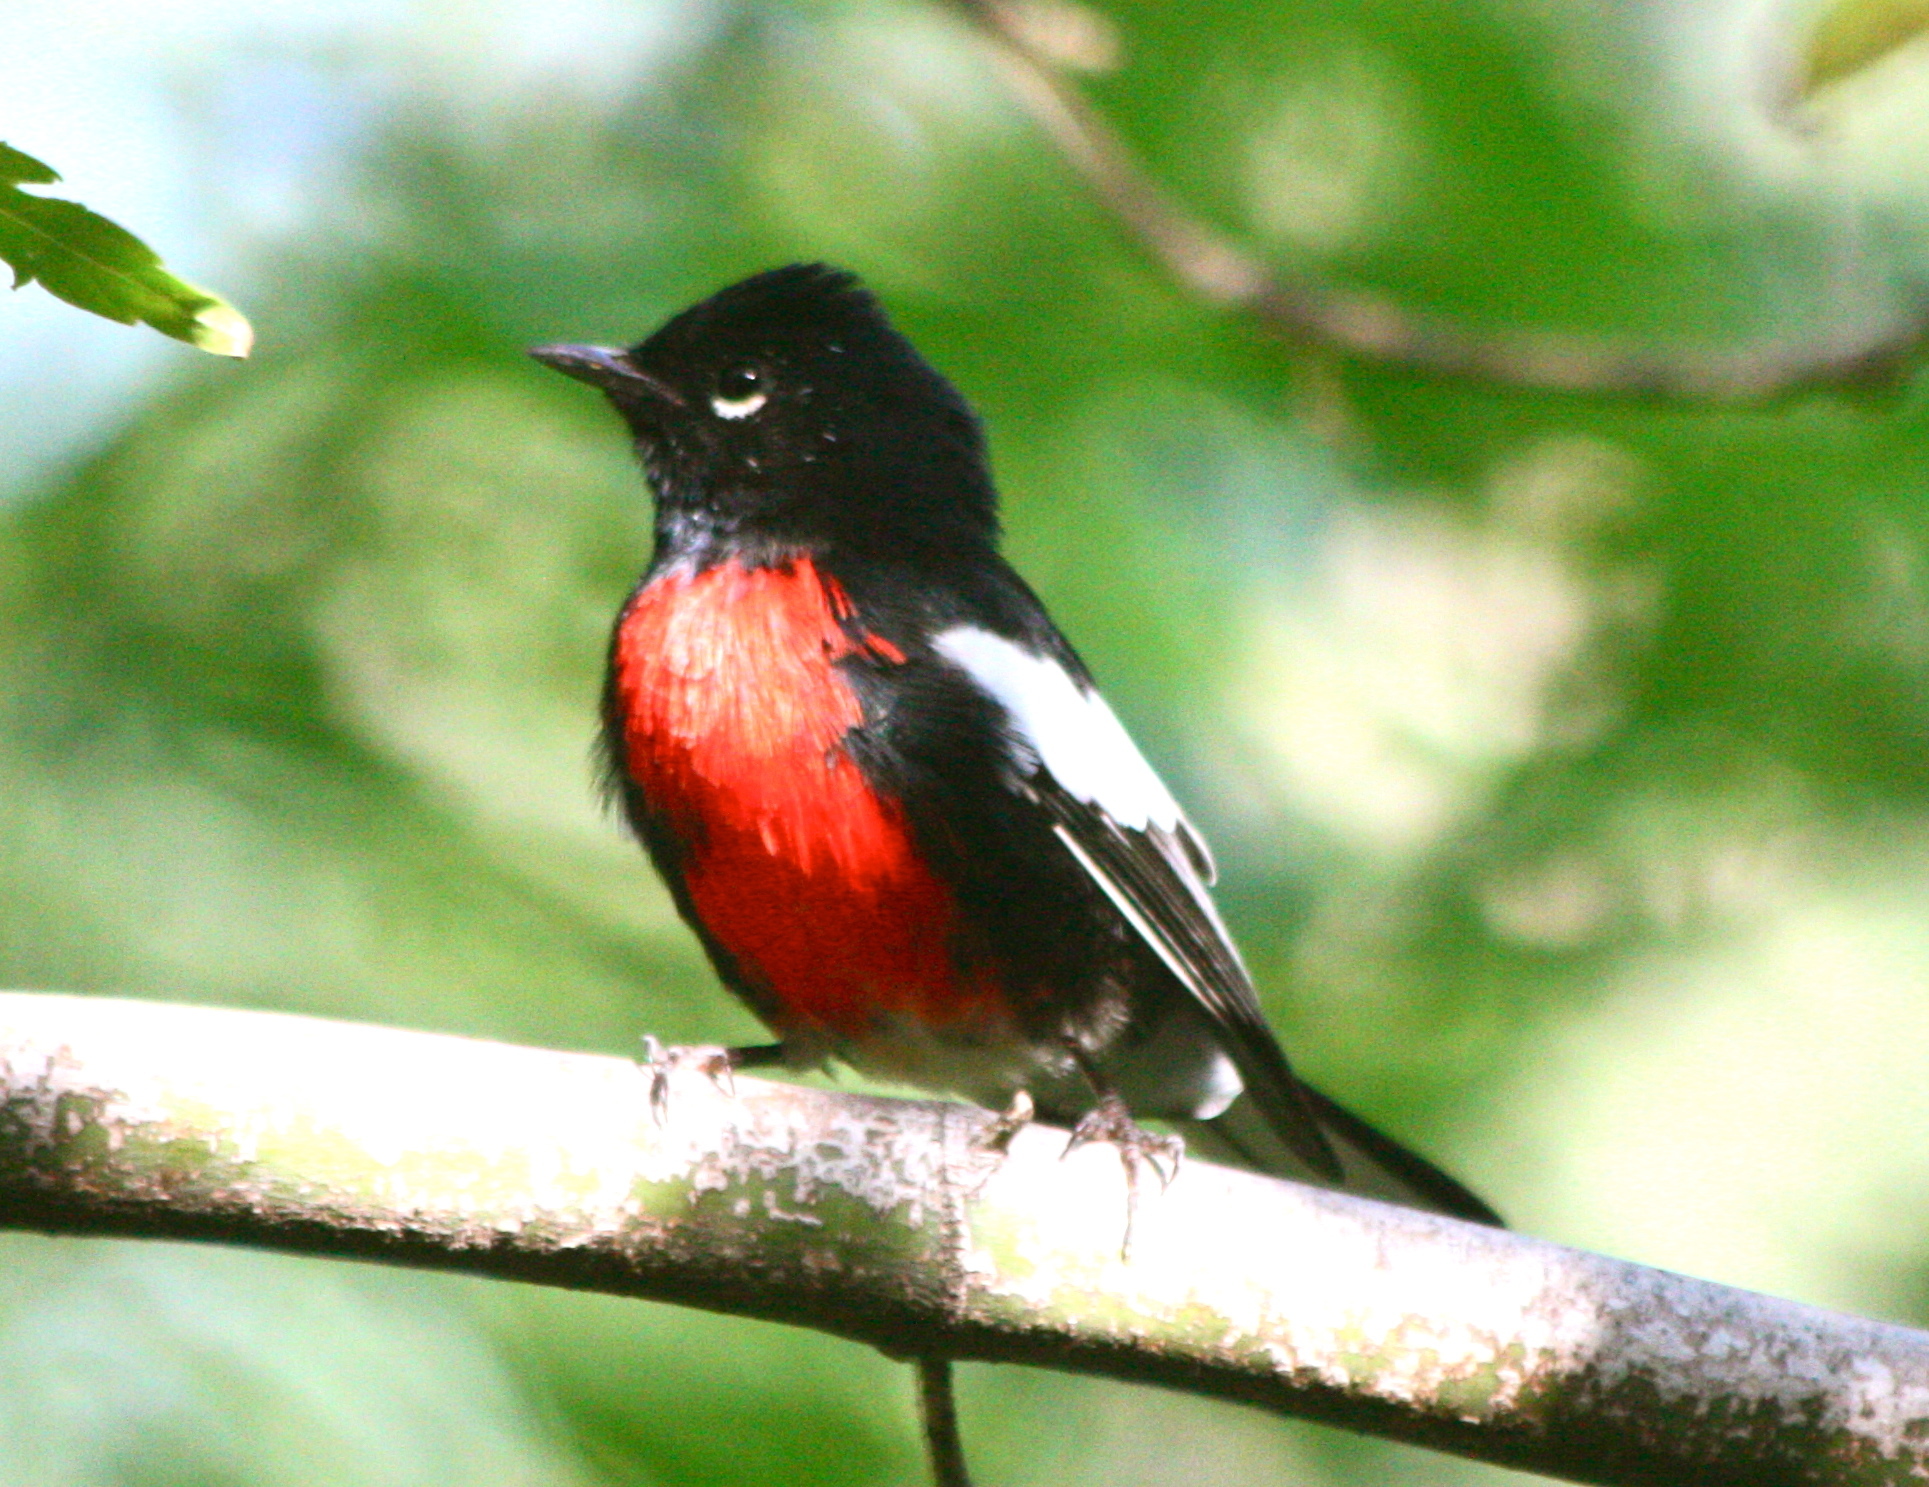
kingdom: Animalia
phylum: Chordata
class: Aves
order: Passeriformes
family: Parulidae
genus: Myioborus
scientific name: Myioborus pictus
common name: Painted whitestart
